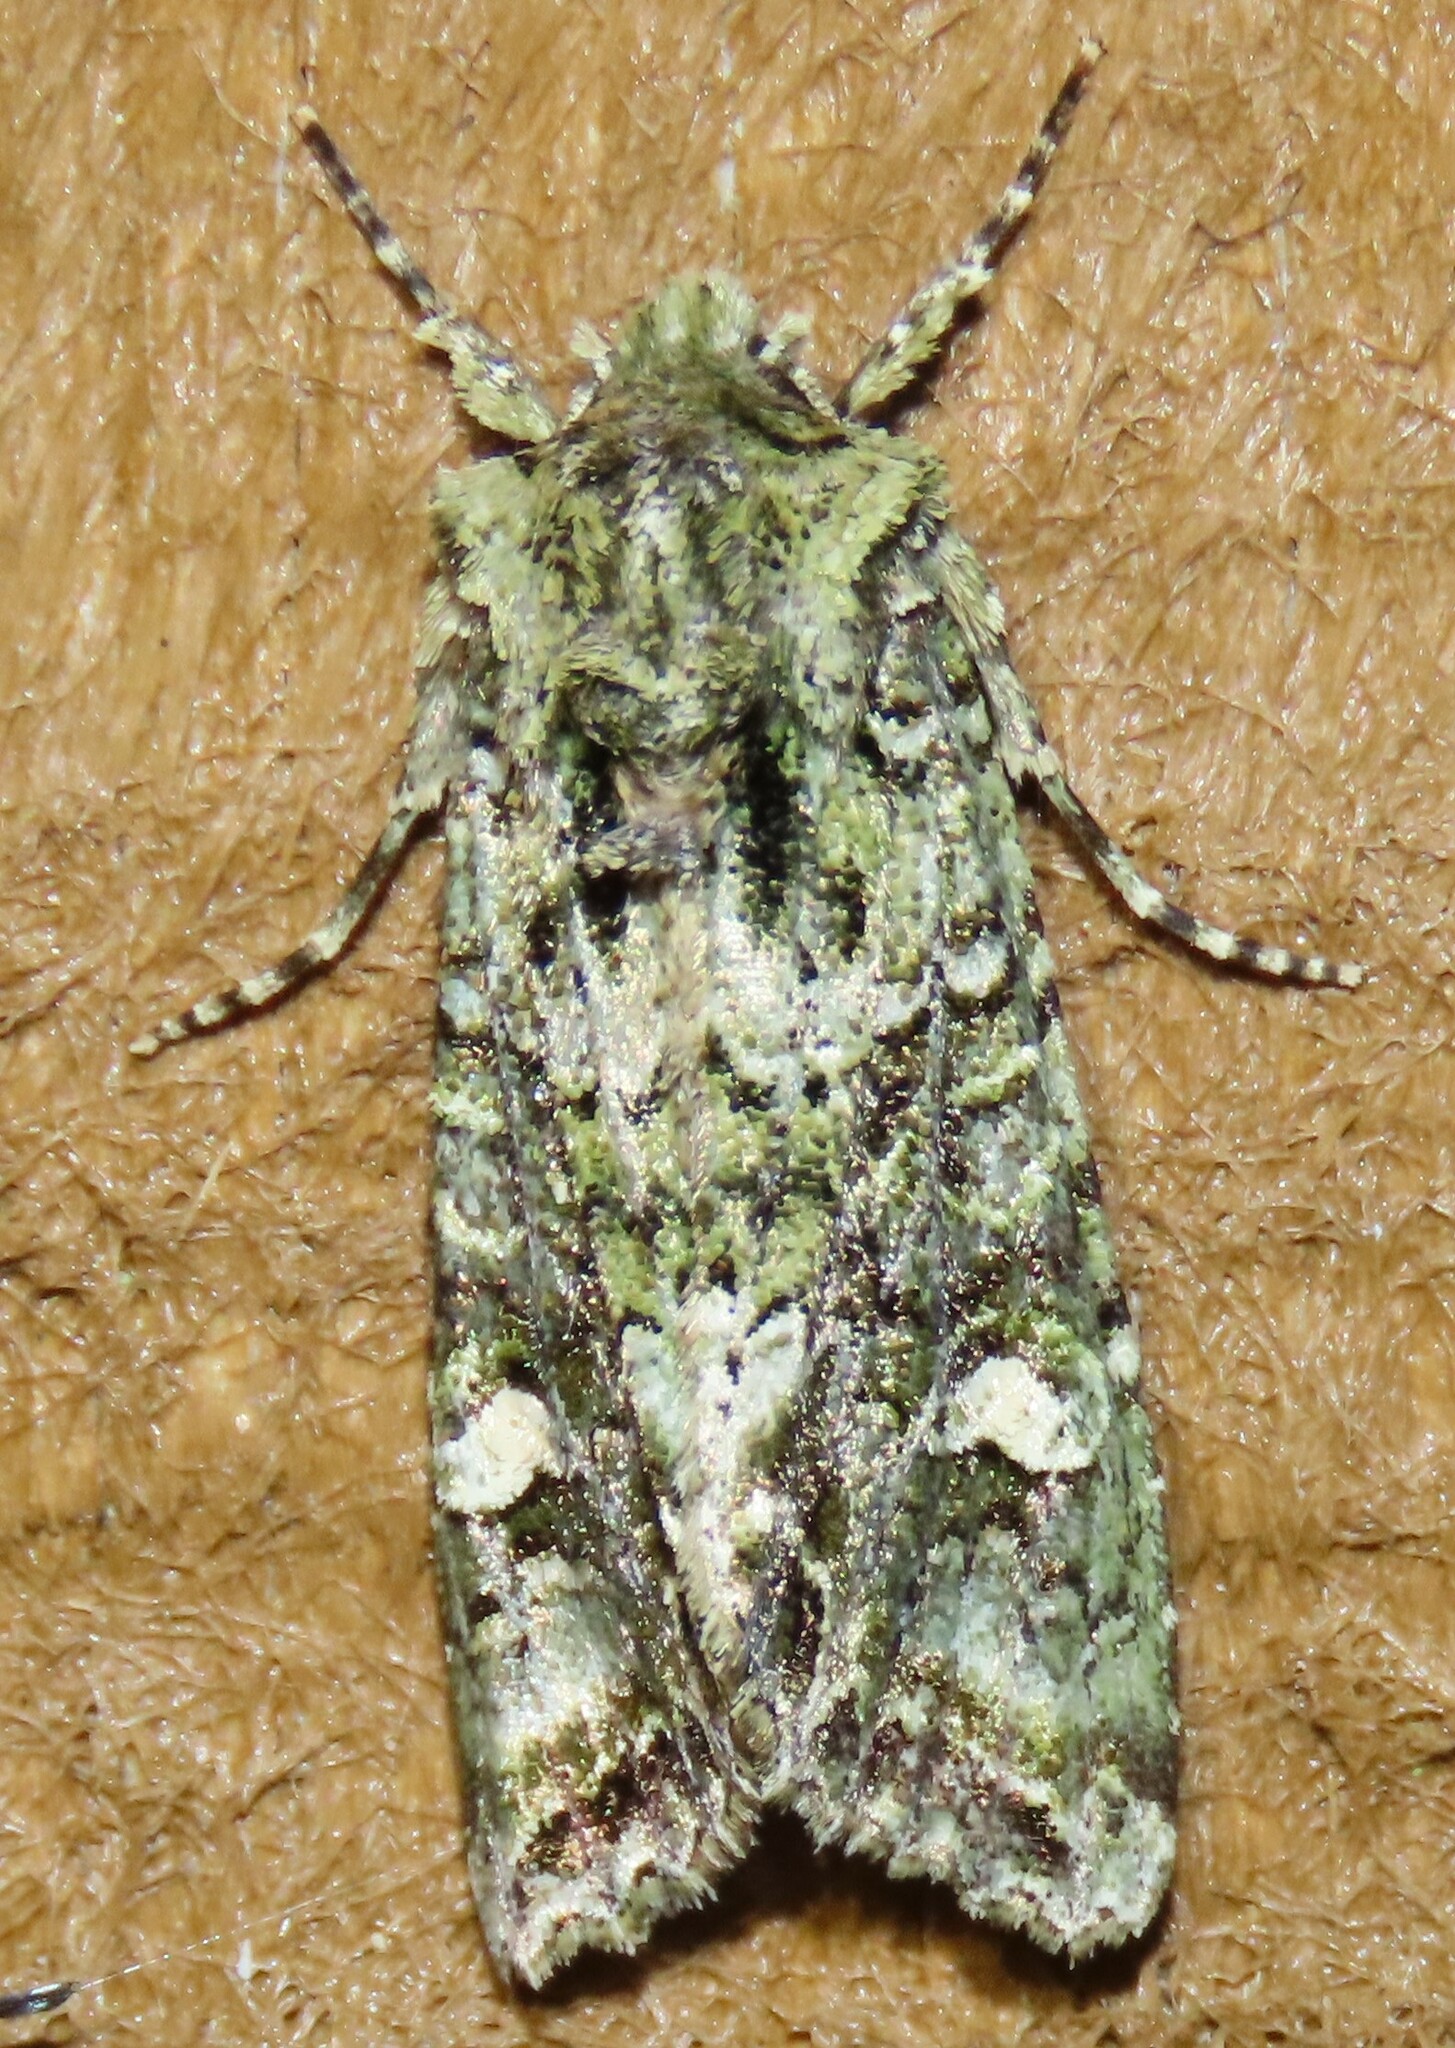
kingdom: Animalia
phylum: Arthropoda
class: Insecta
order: Lepidoptera
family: Noctuidae
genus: Ichneutica
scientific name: Ichneutica
